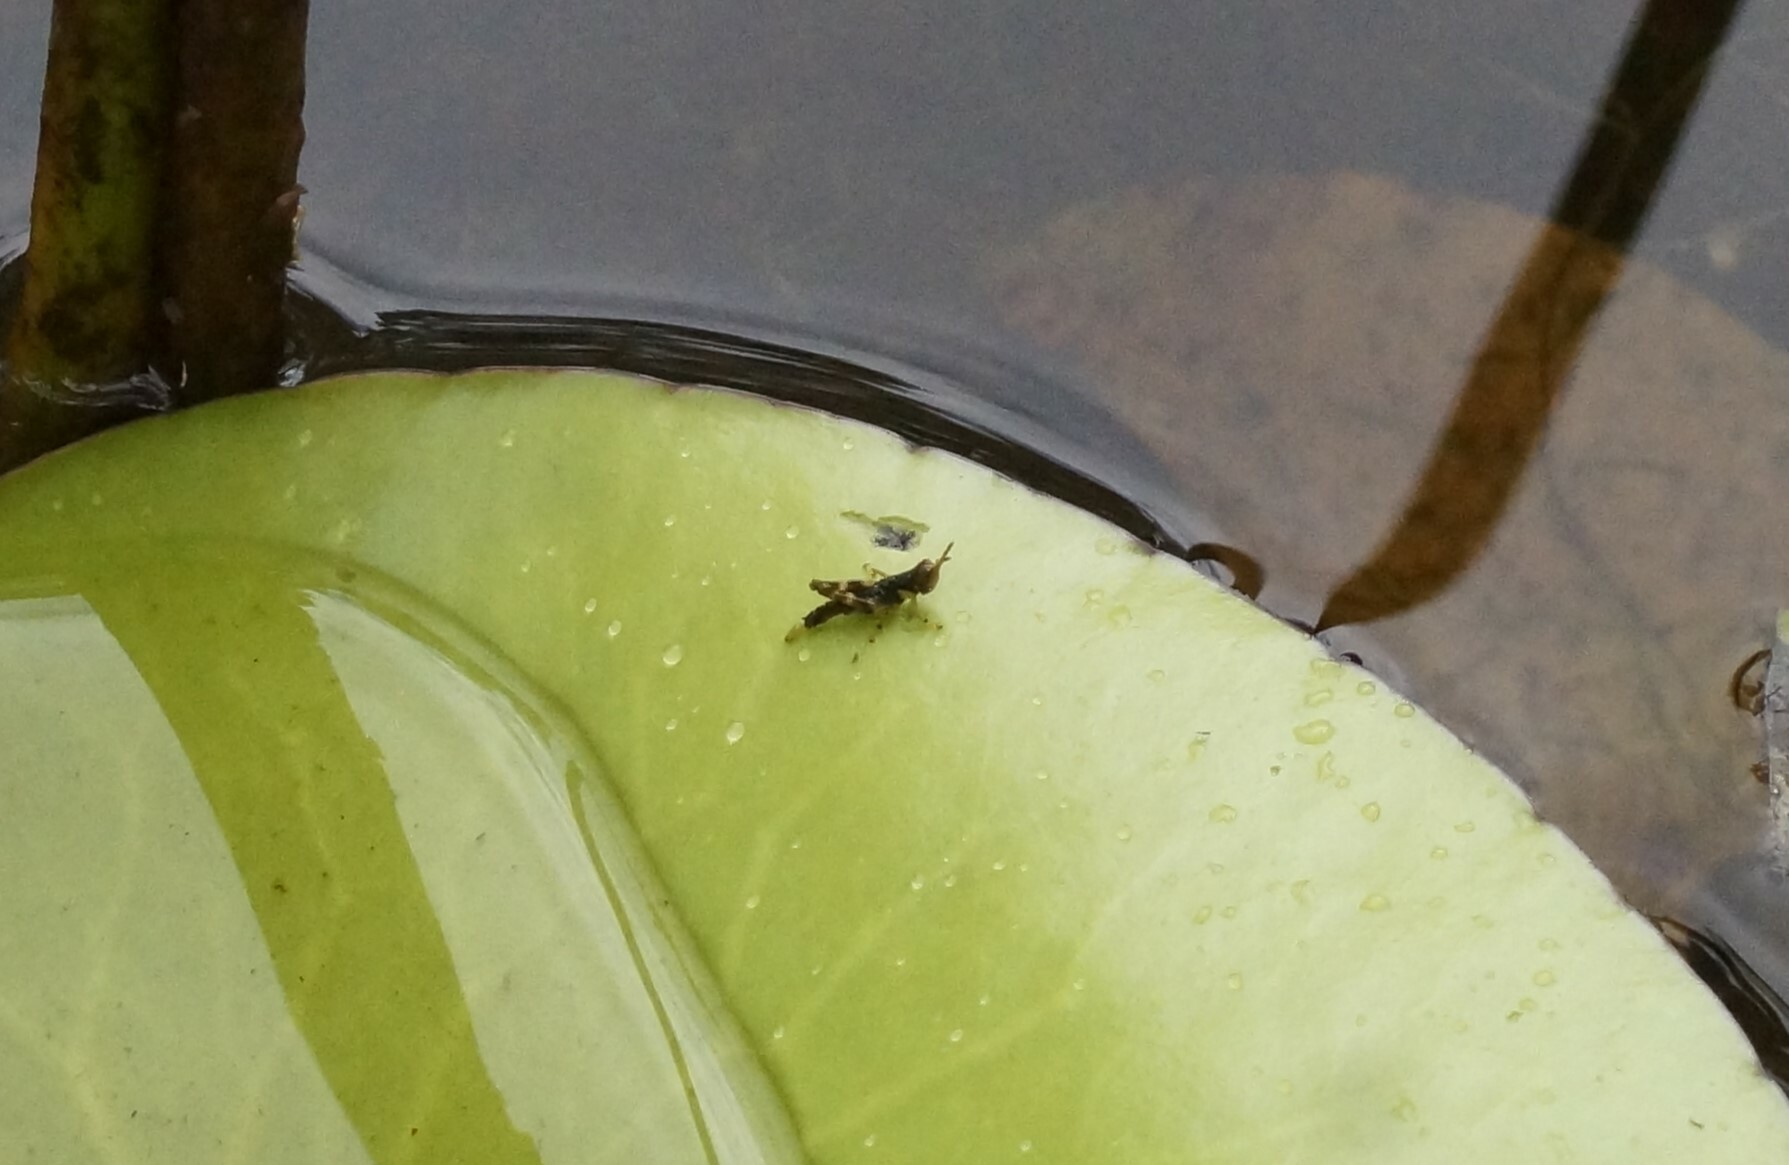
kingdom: Animalia
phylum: Arthropoda
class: Insecta
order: Orthoptera
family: Acrididae
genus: Gesonula
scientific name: Gesonula mundata
